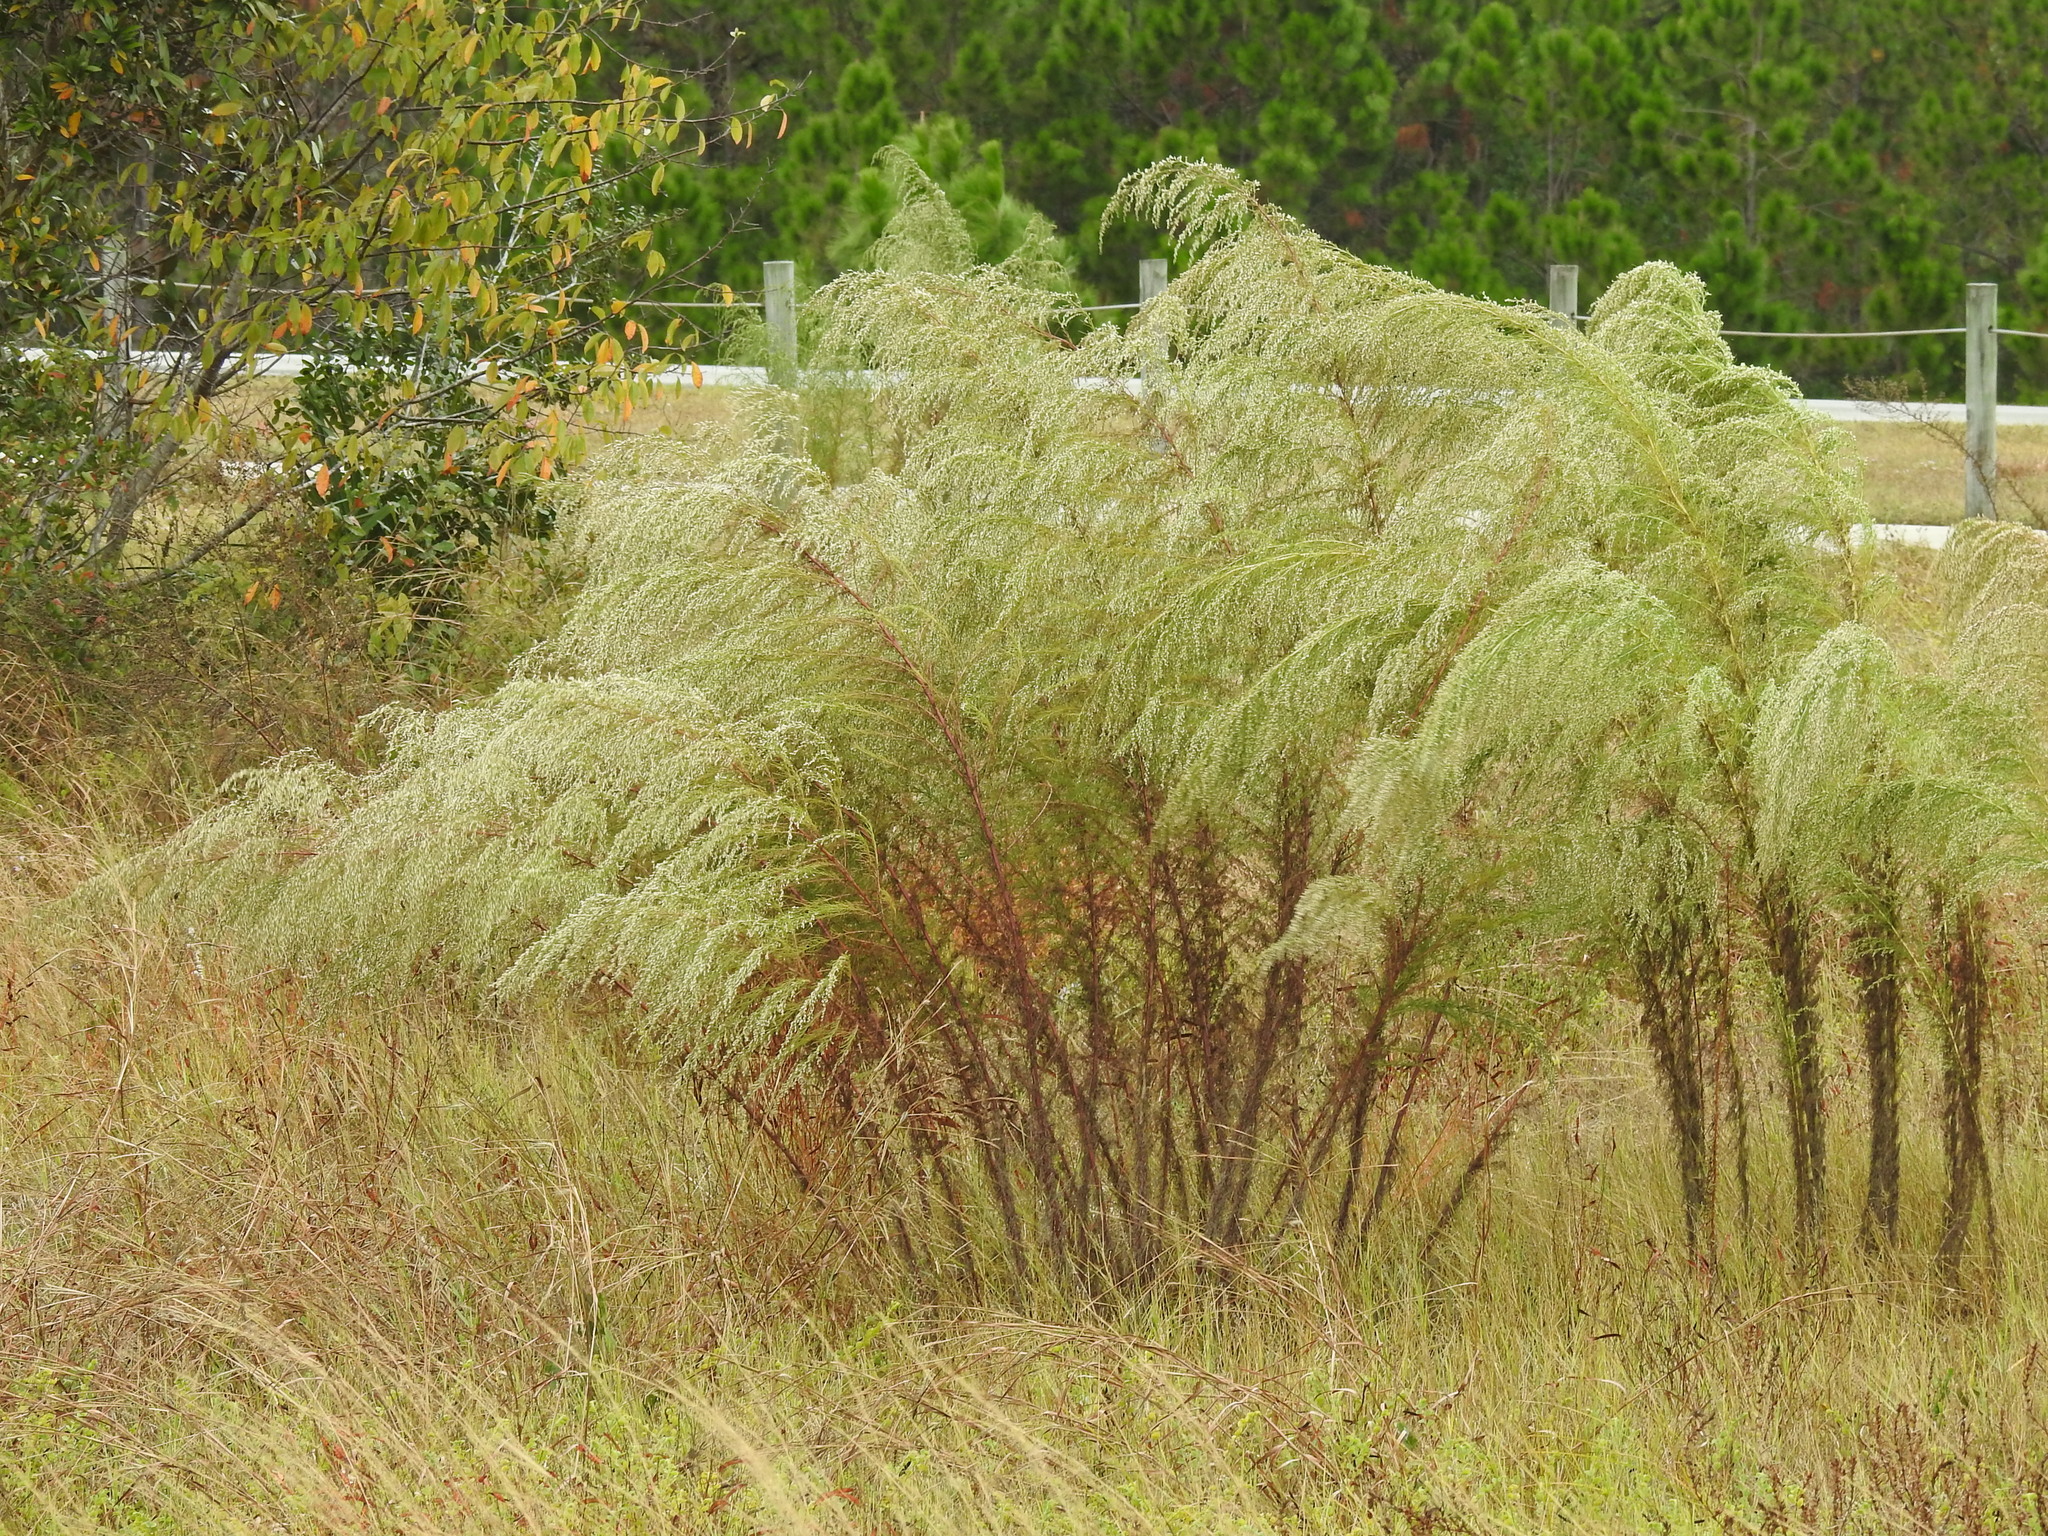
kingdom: Plantae
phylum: Tracheophyta
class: Magnoliopsida
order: Asterales
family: Asteraceae
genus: Eupatorium
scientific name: Eupatorium capillifolium
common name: Dog-fennel
